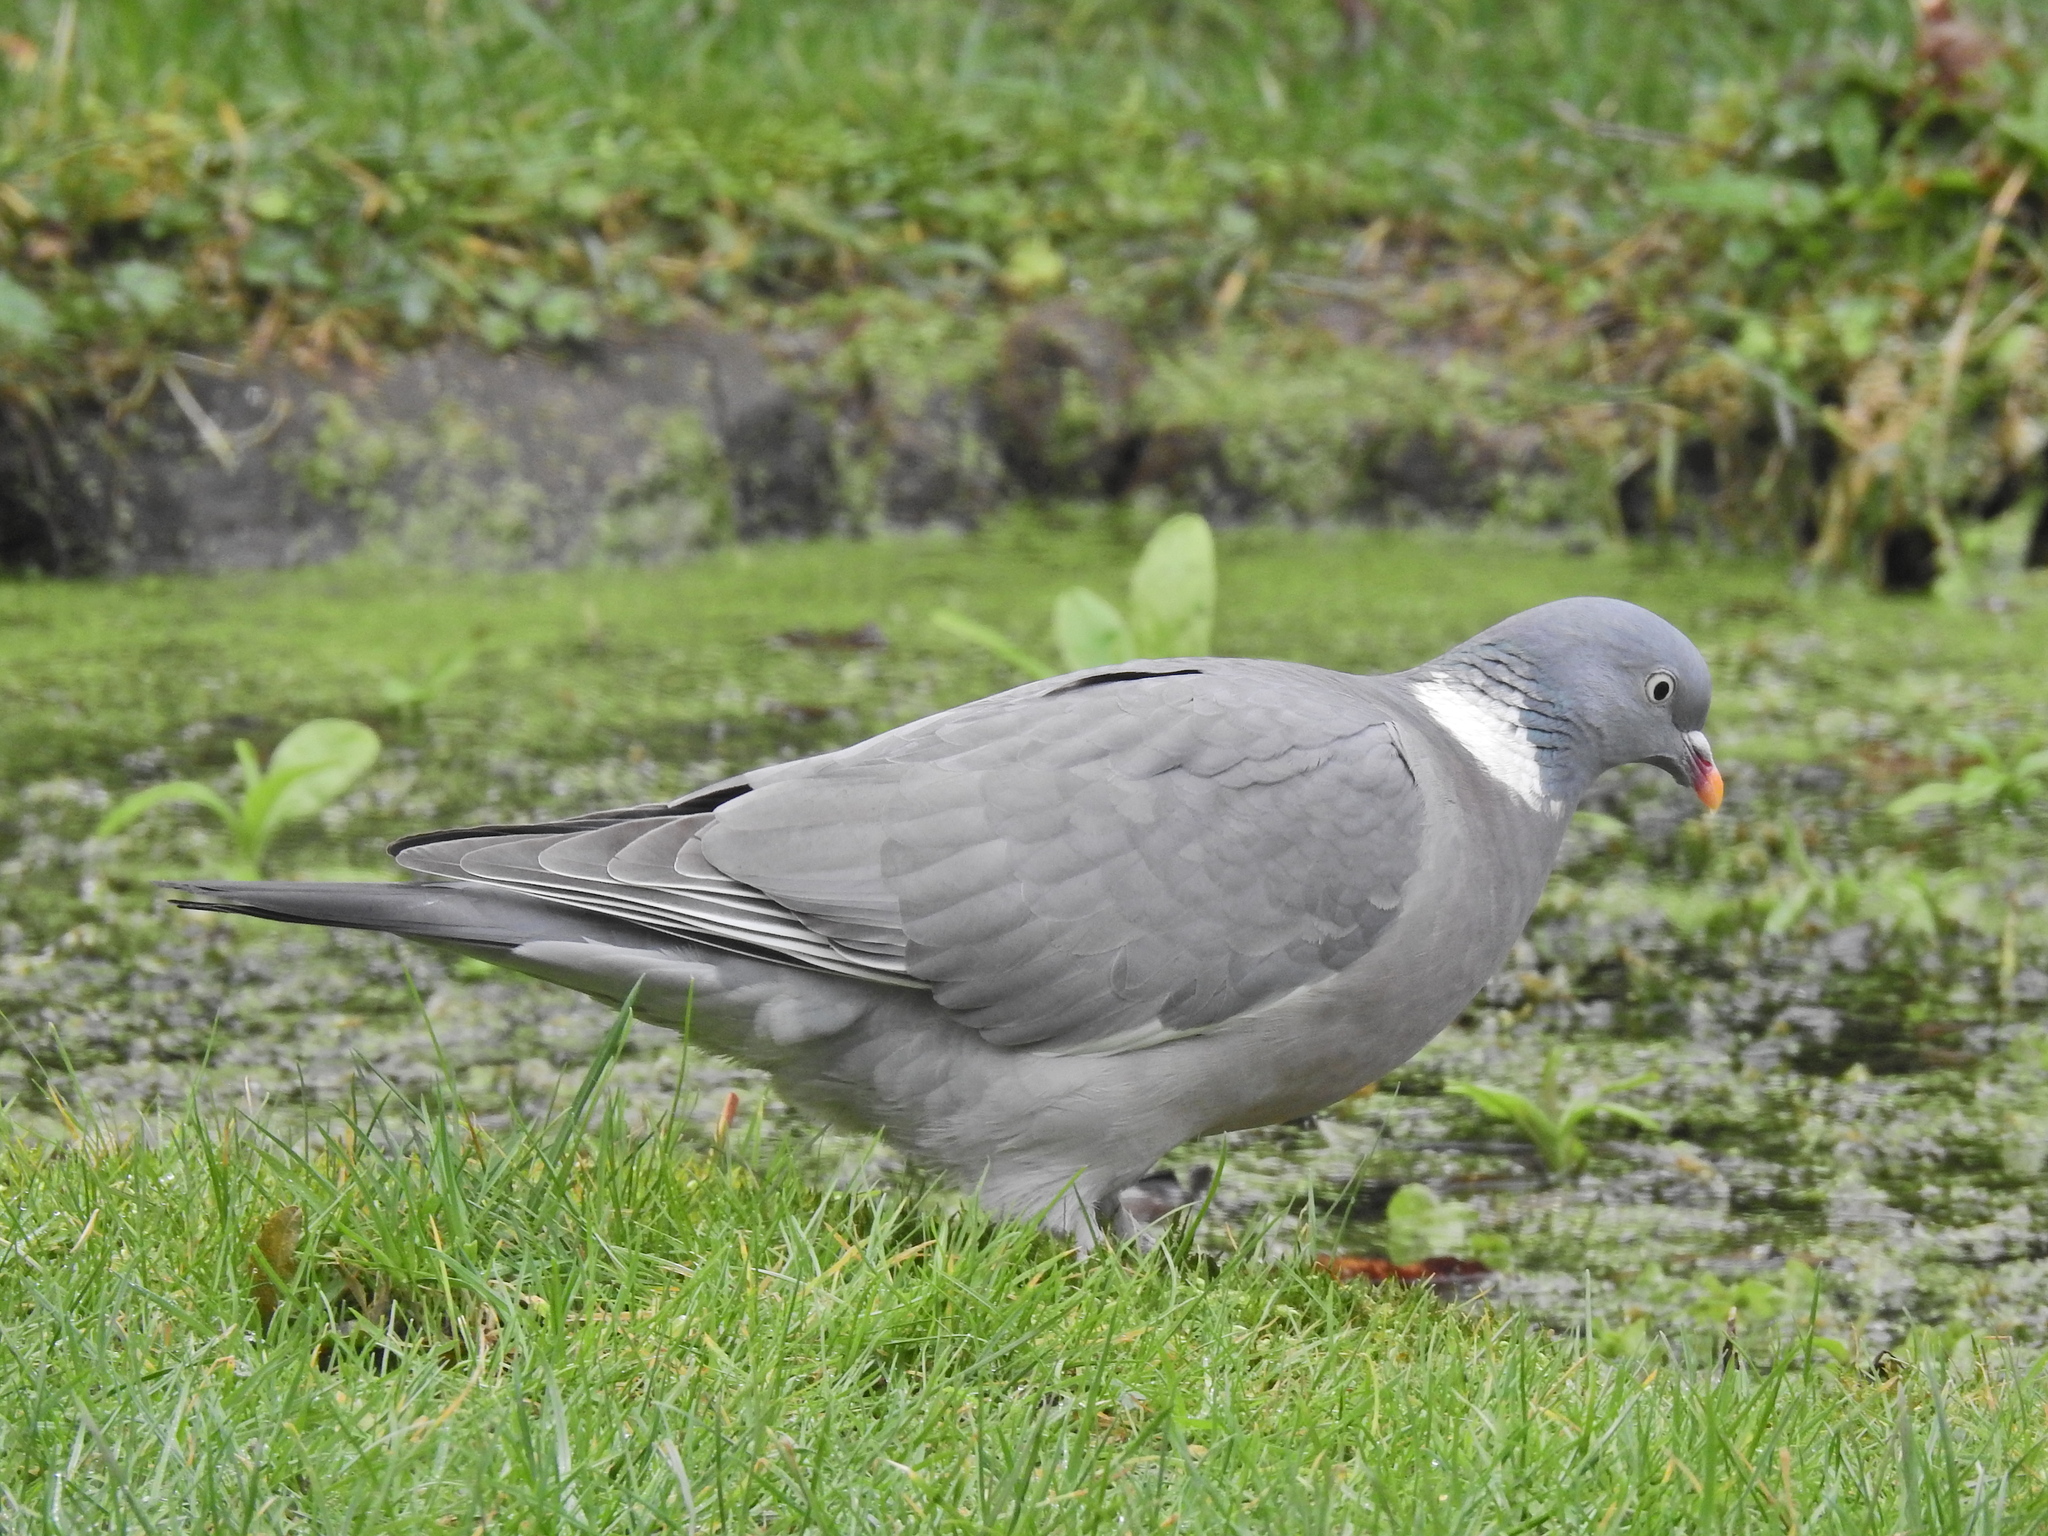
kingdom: Animalia
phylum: Chordata
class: Aves
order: Columbiformes
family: Columbidae
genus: Columba
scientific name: Columba palumbus
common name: Common wood pigeon
